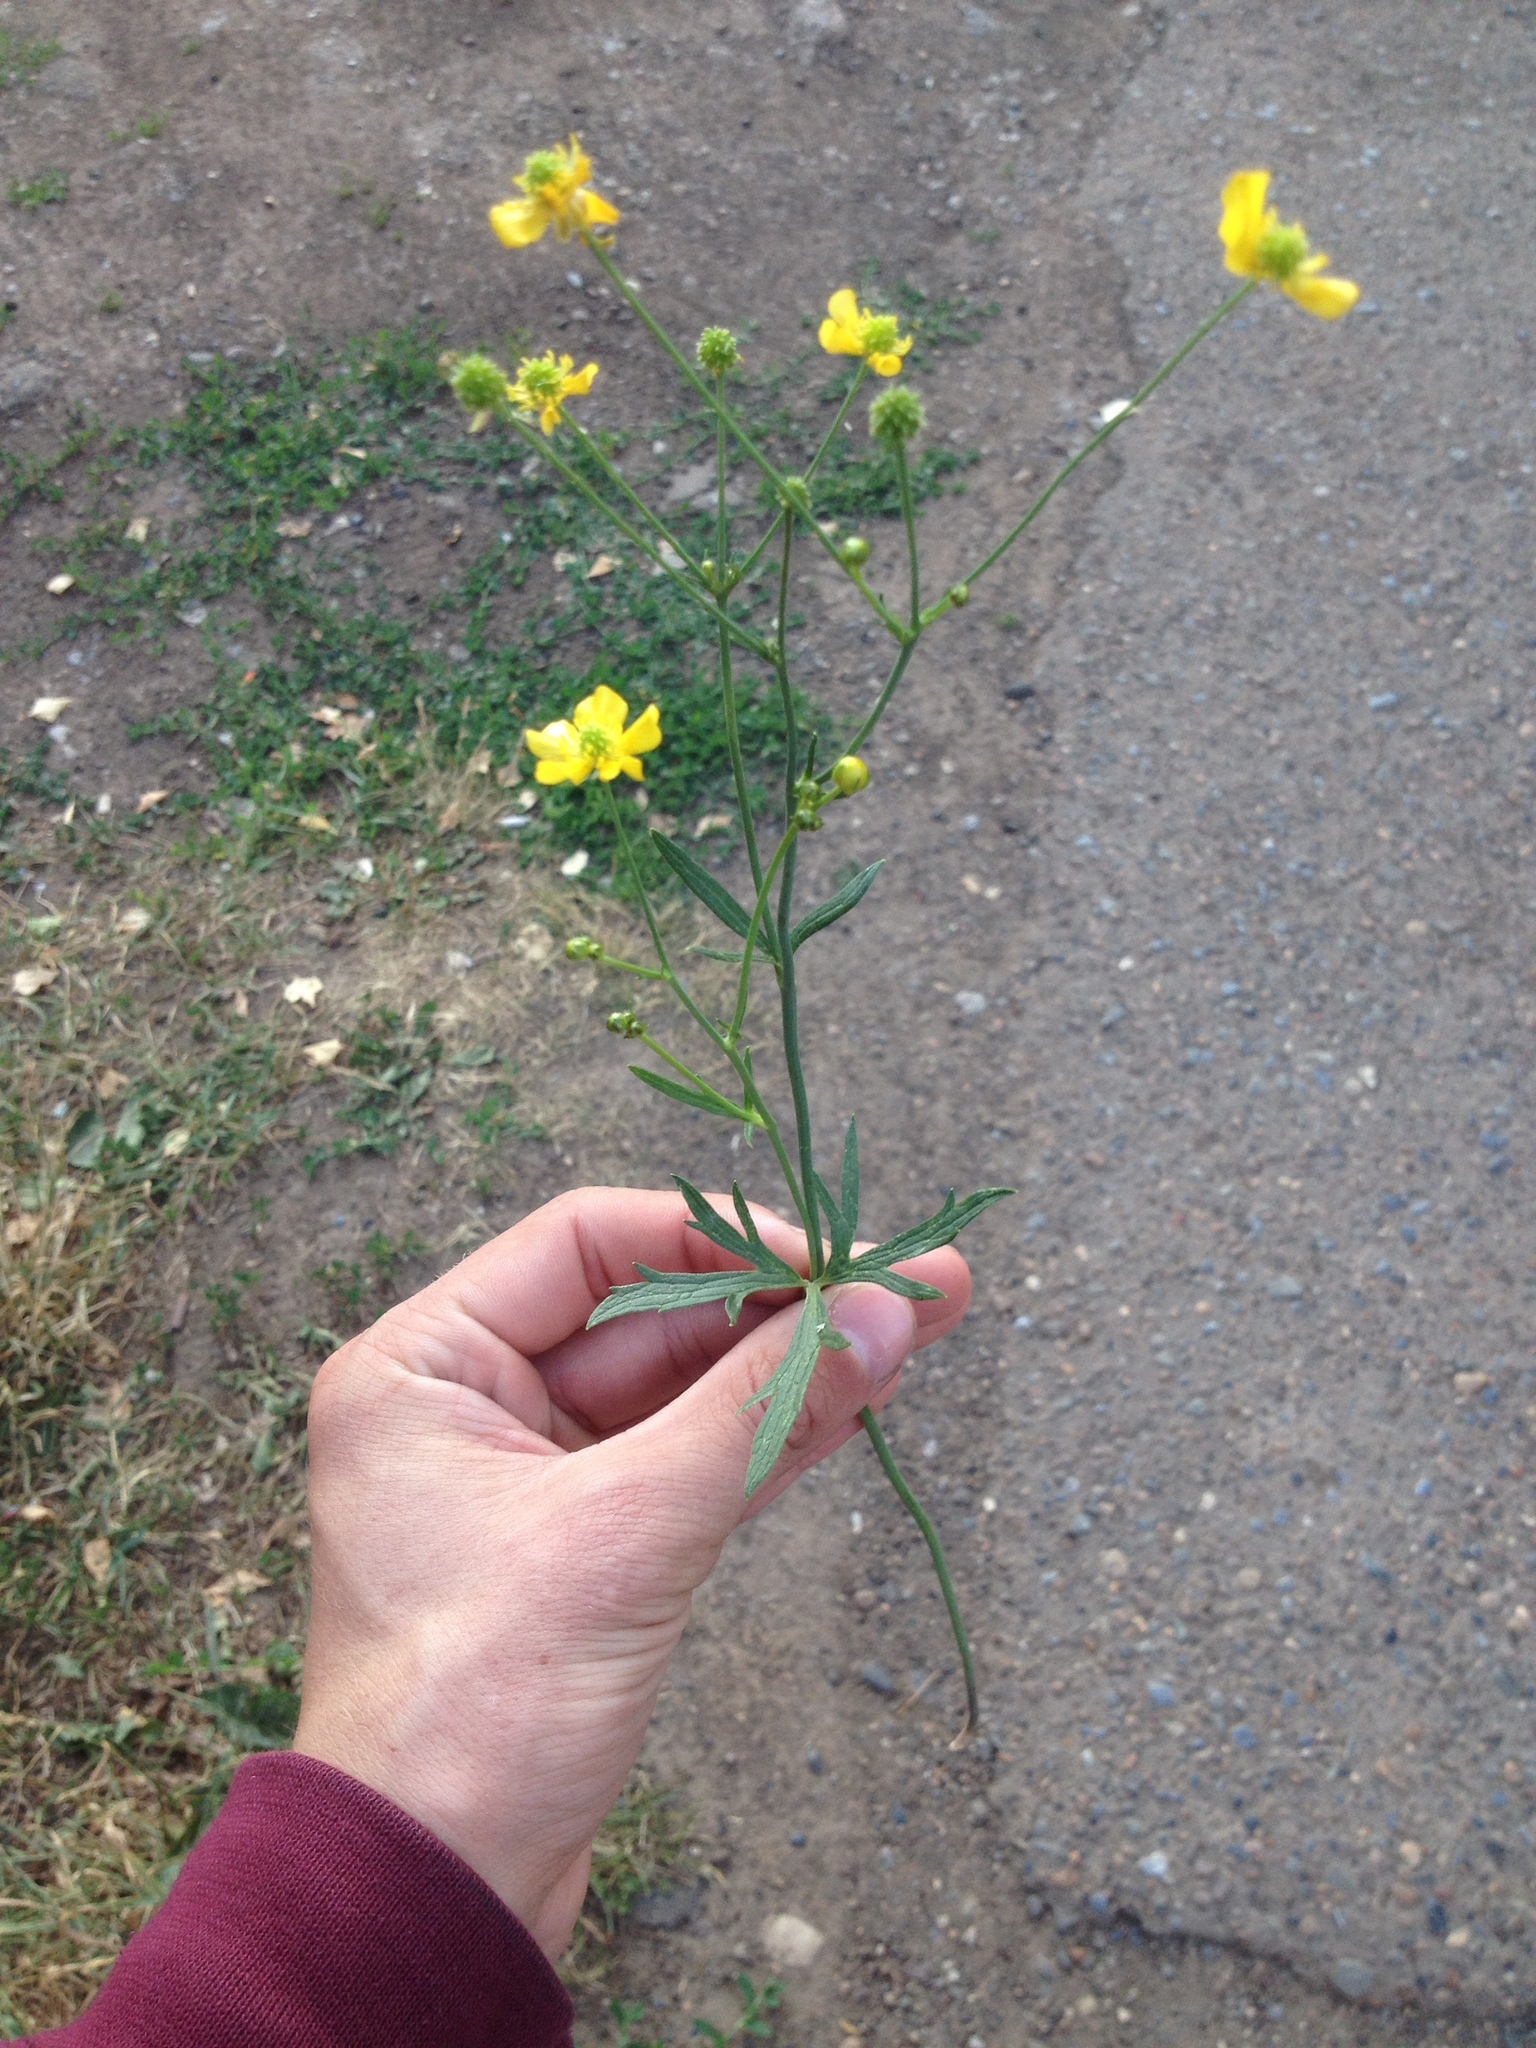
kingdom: Plantae
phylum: Tracheophyta
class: Magnoliopsida
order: Ranunculales
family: Ranunculaceae
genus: Ranunculus
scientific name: Ranunculus acris
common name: Meadow buttercup
